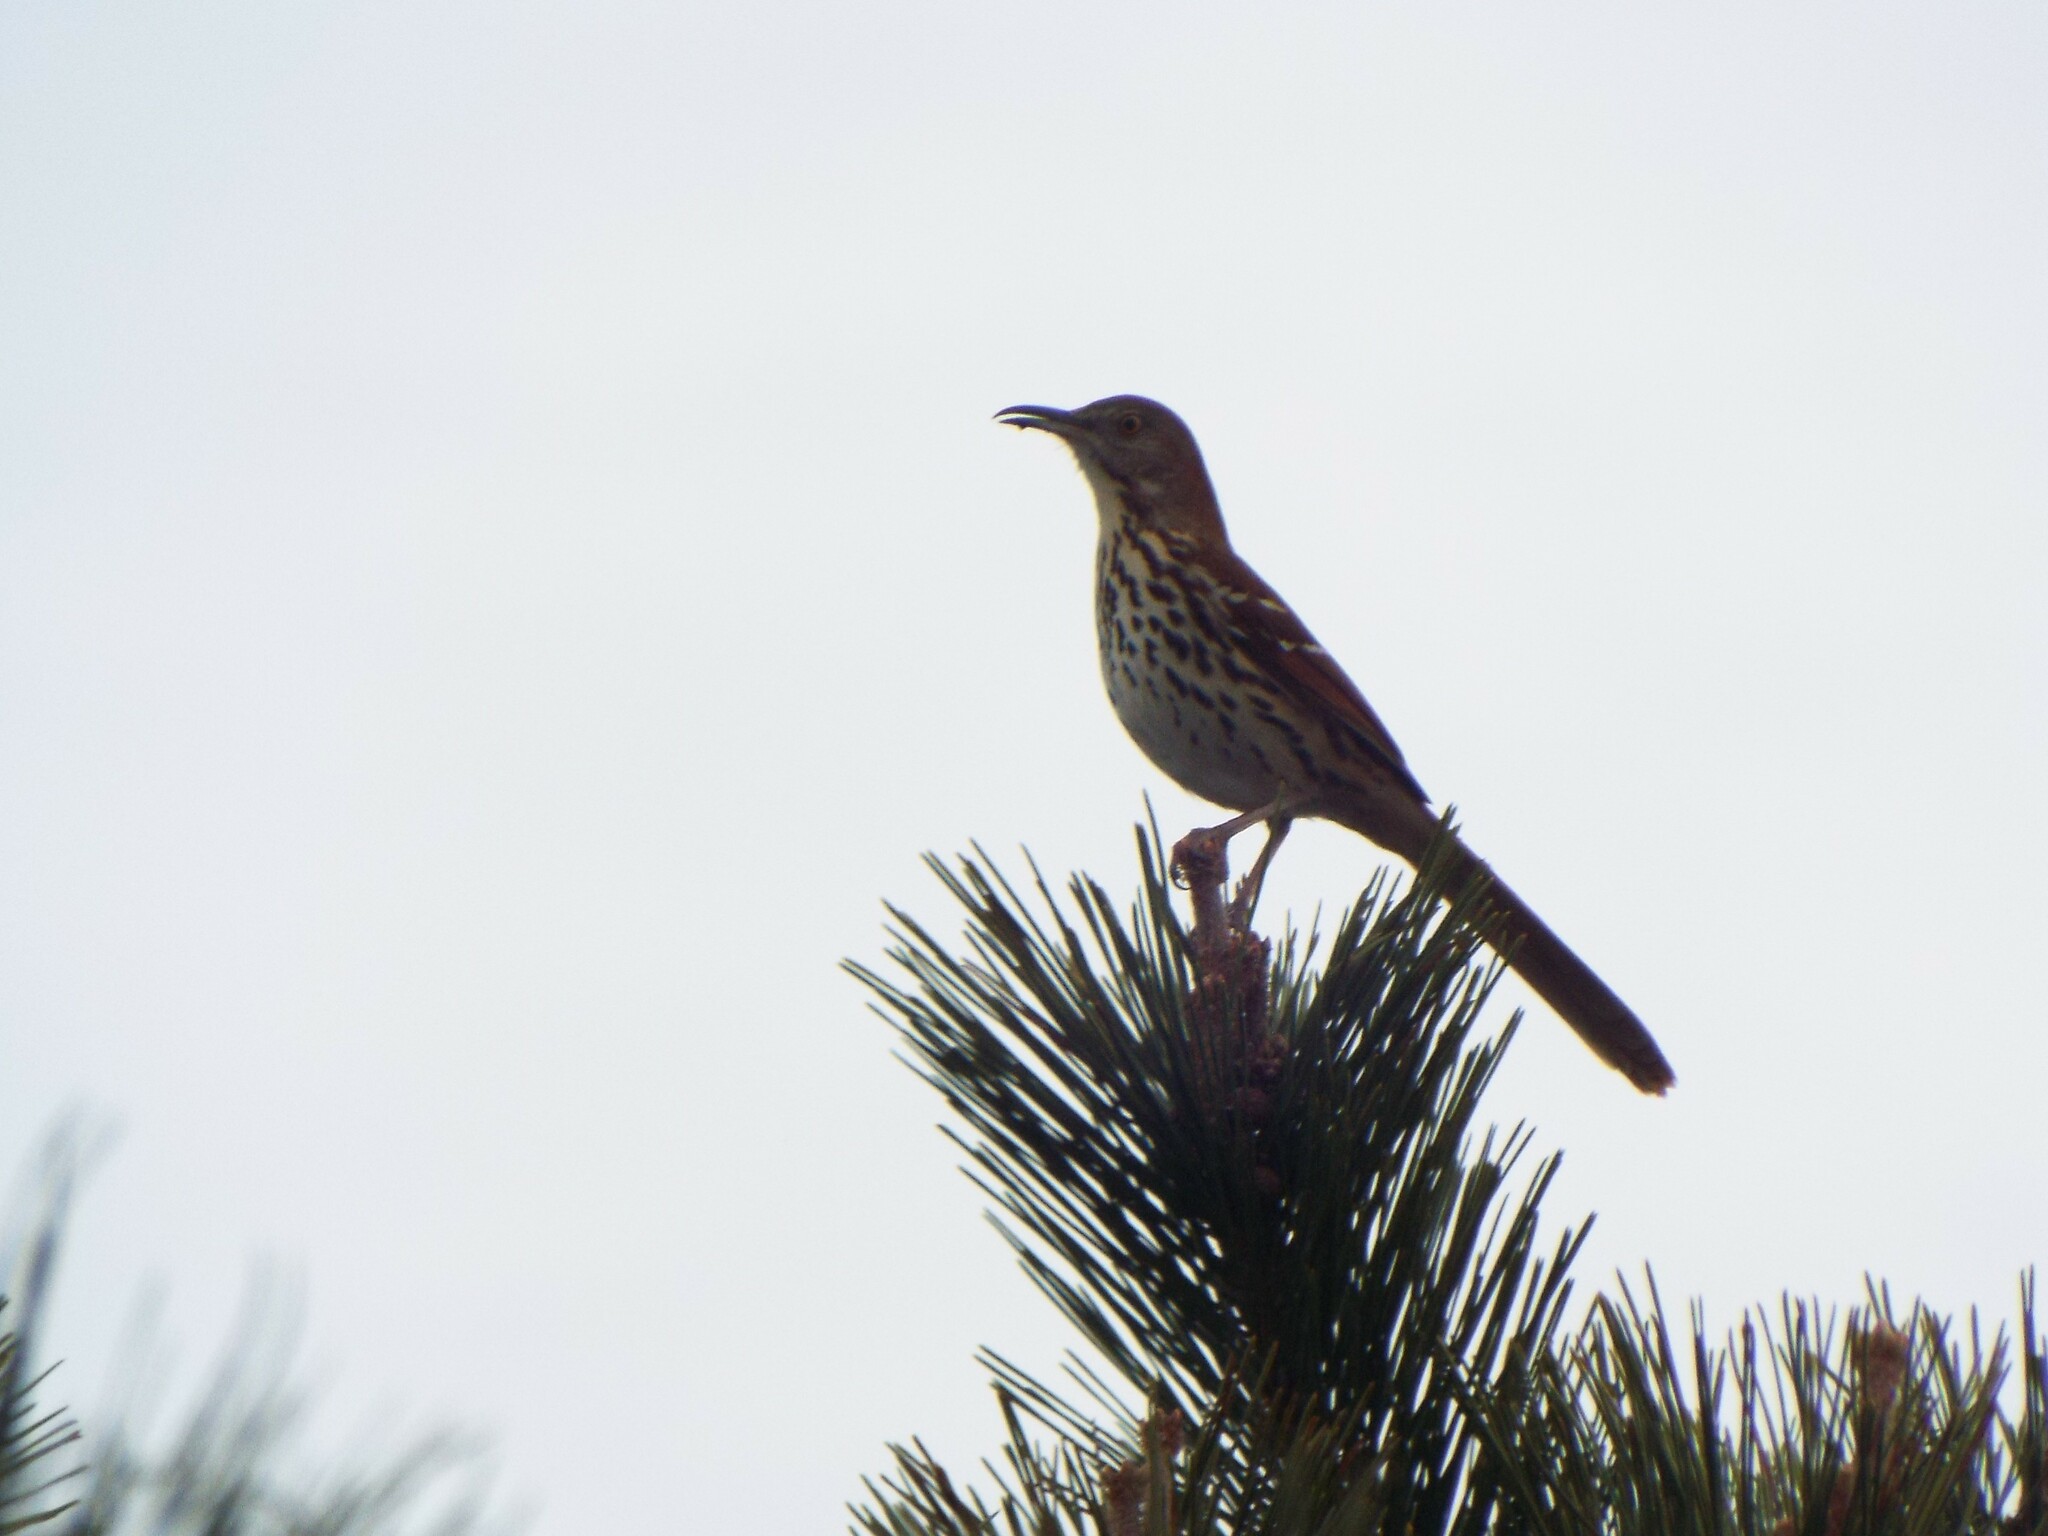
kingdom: Animalia
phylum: Chordata
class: Aves
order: Passeriformes
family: Mimidae
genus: Toxostoma
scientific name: Toxostoma rufum
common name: Brown thrasher
